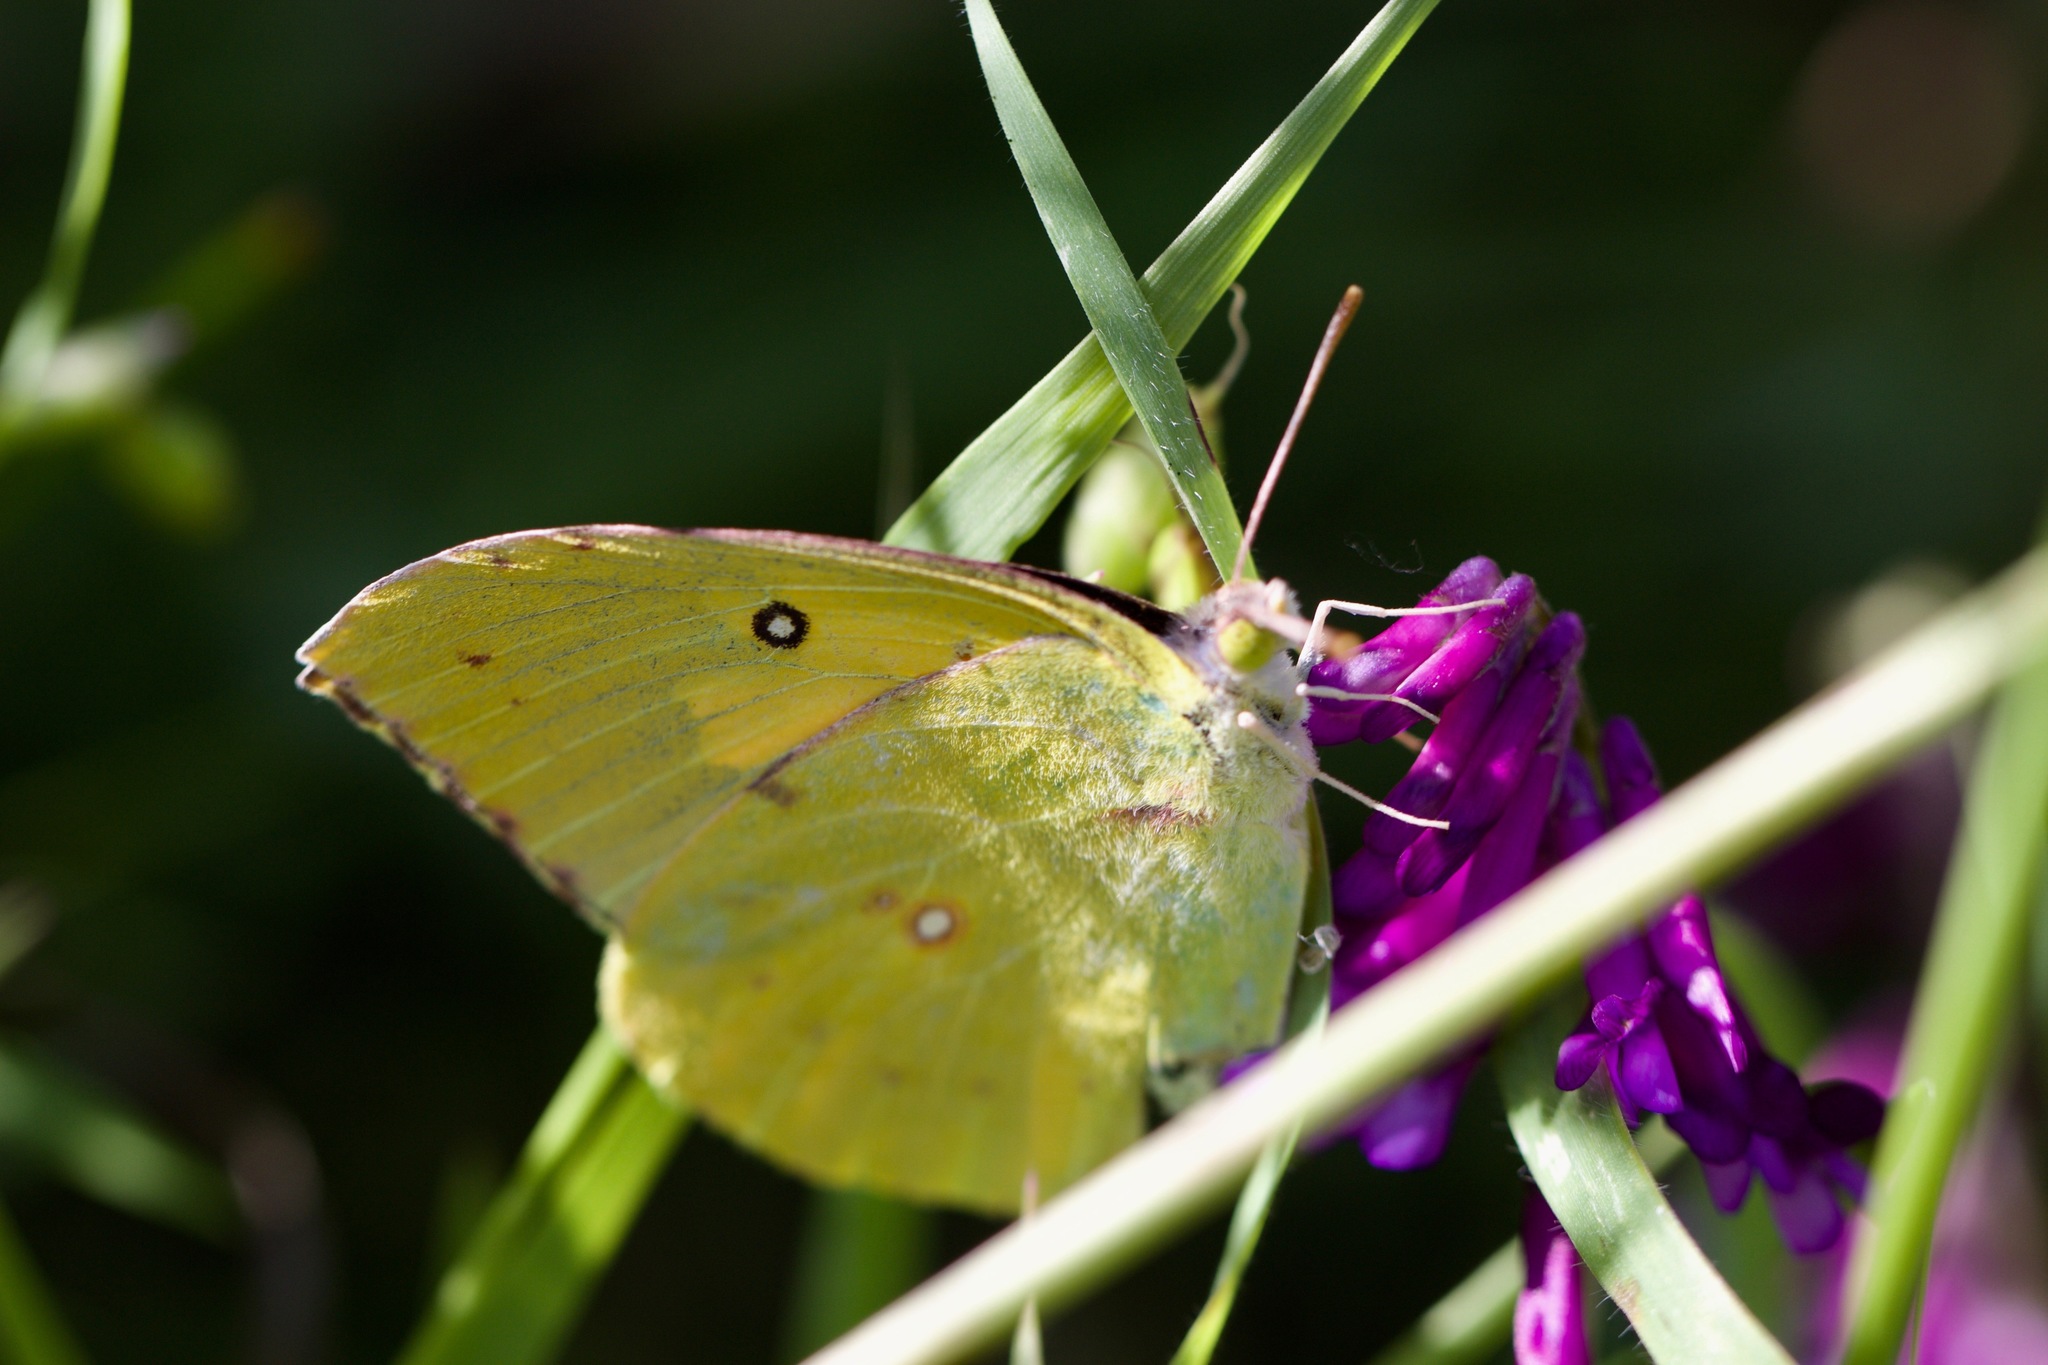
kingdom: Animalia
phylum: Arthropoda
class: Insecta
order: Lepidoptera
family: Pieridae
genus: Zerene
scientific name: Zerene eurydice
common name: California dogface
